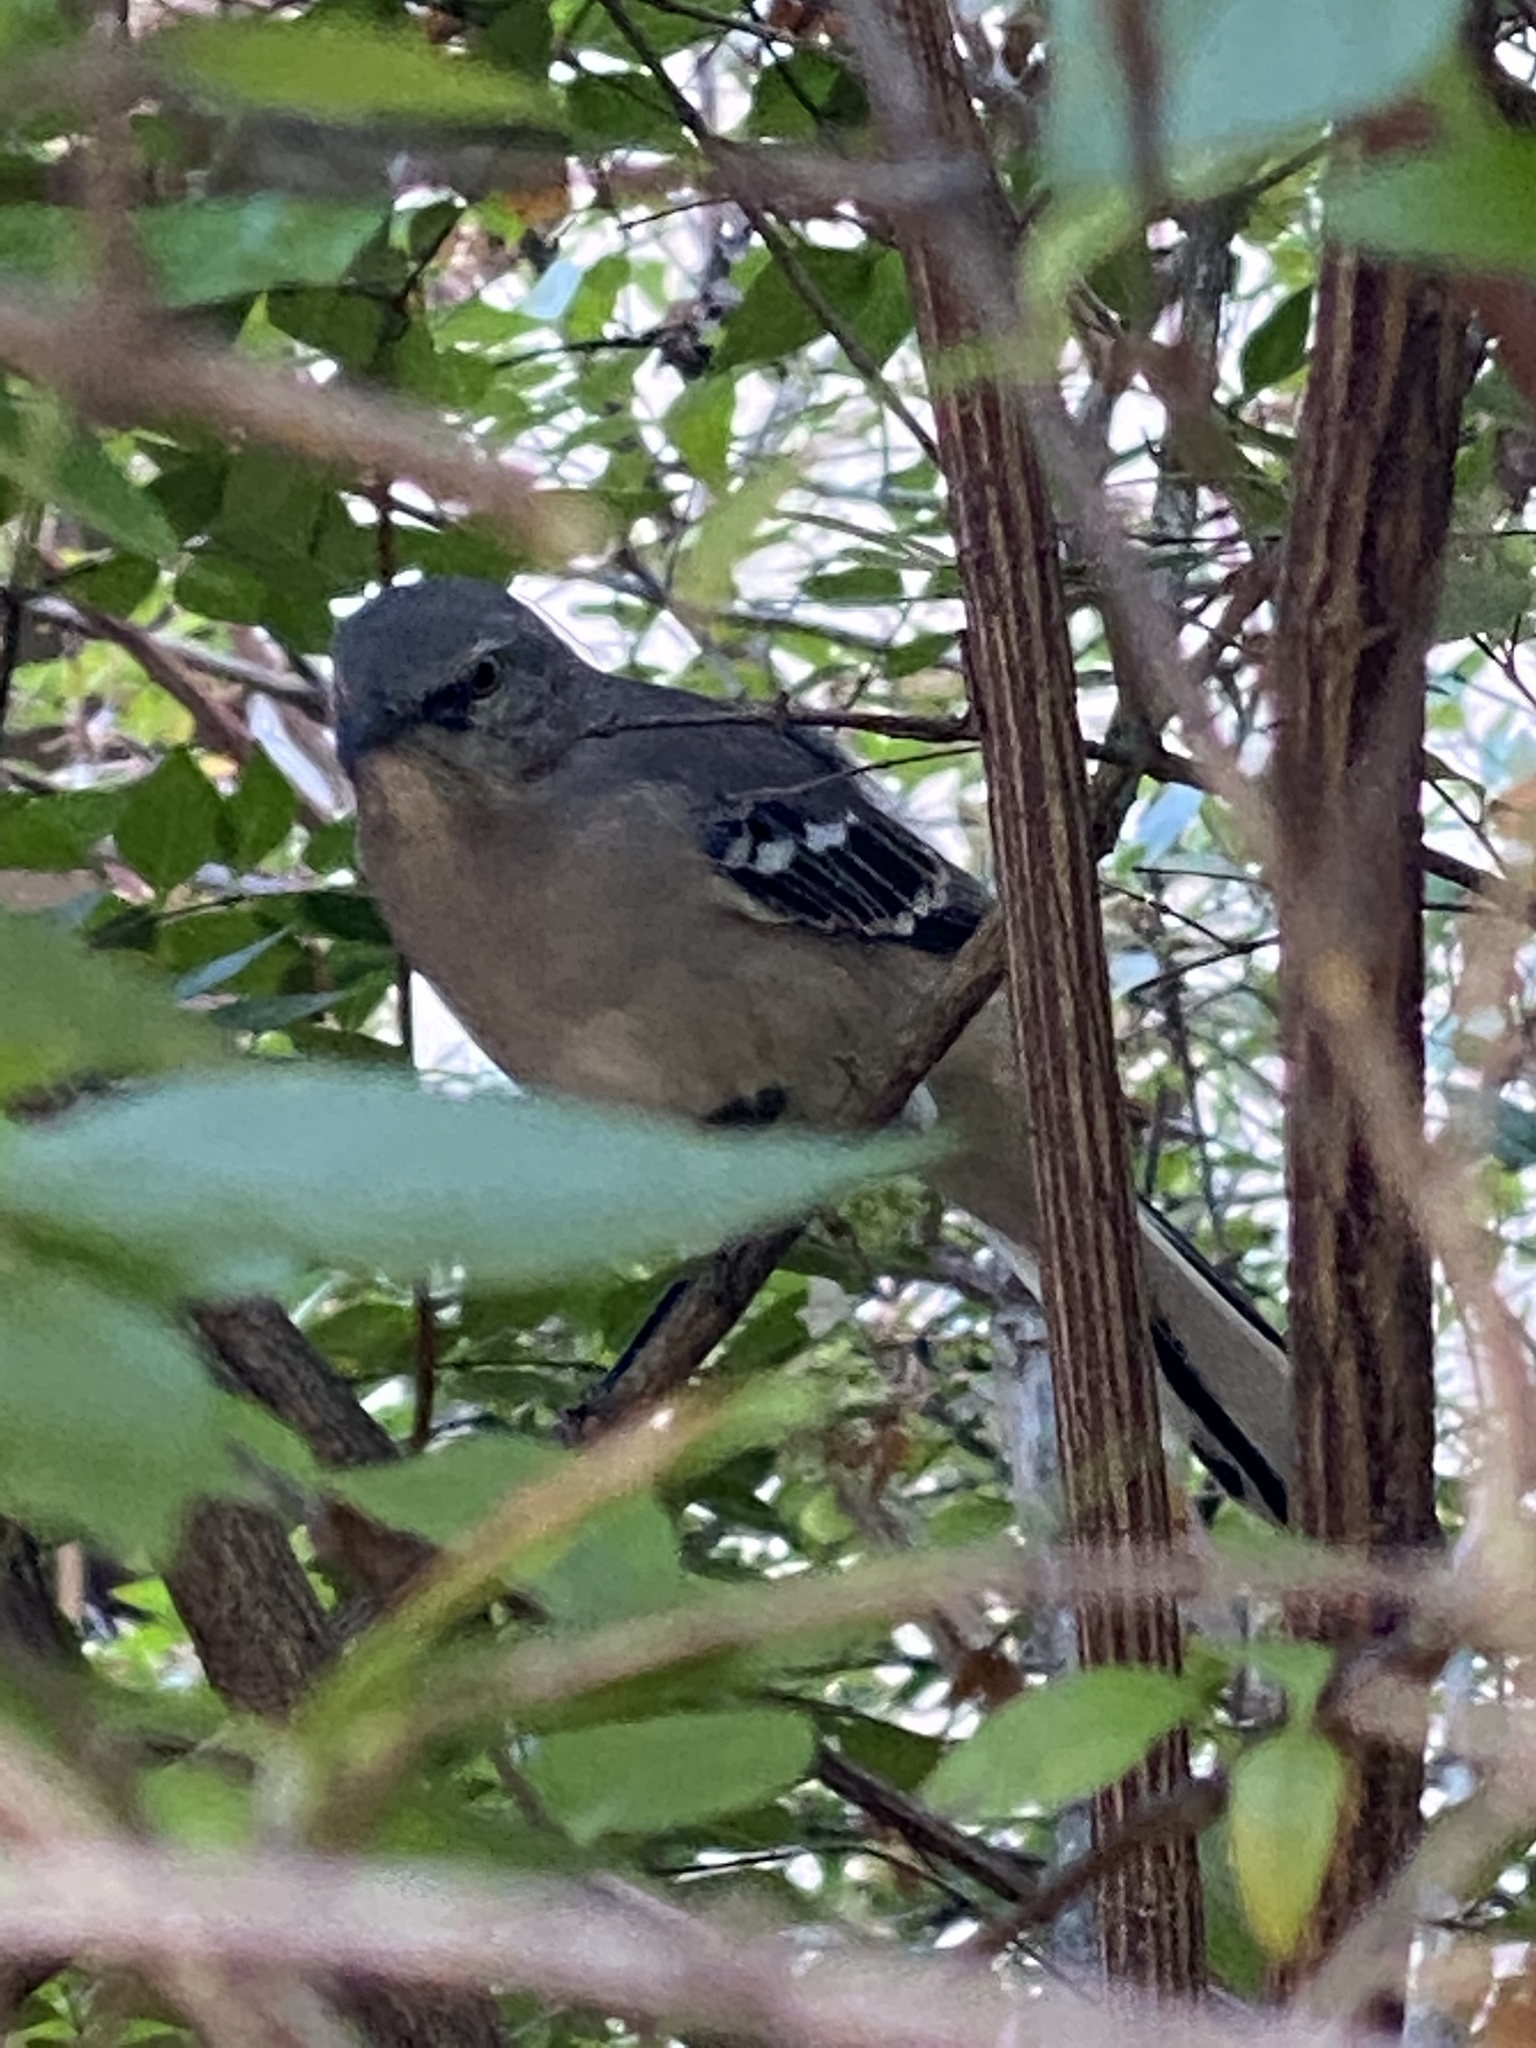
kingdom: Animalia
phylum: Chordata
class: Aves
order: Passeriformes
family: Mimidae
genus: Mimus
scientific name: Mimus polyglottos
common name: Northern mockingbird
